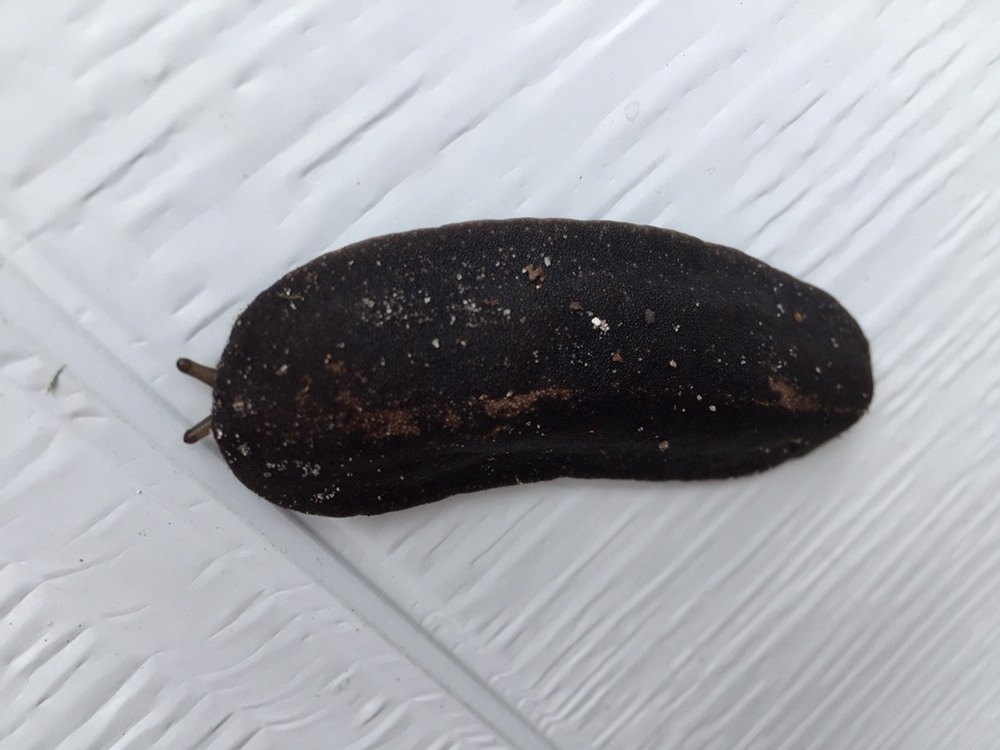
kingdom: Animalia
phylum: Mollusca
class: Gastropoda
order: Systellommatophora
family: Veronicellidae
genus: Belocaulus
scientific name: Belocaulus angustipes
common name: Black velvet leatherleaf slug
